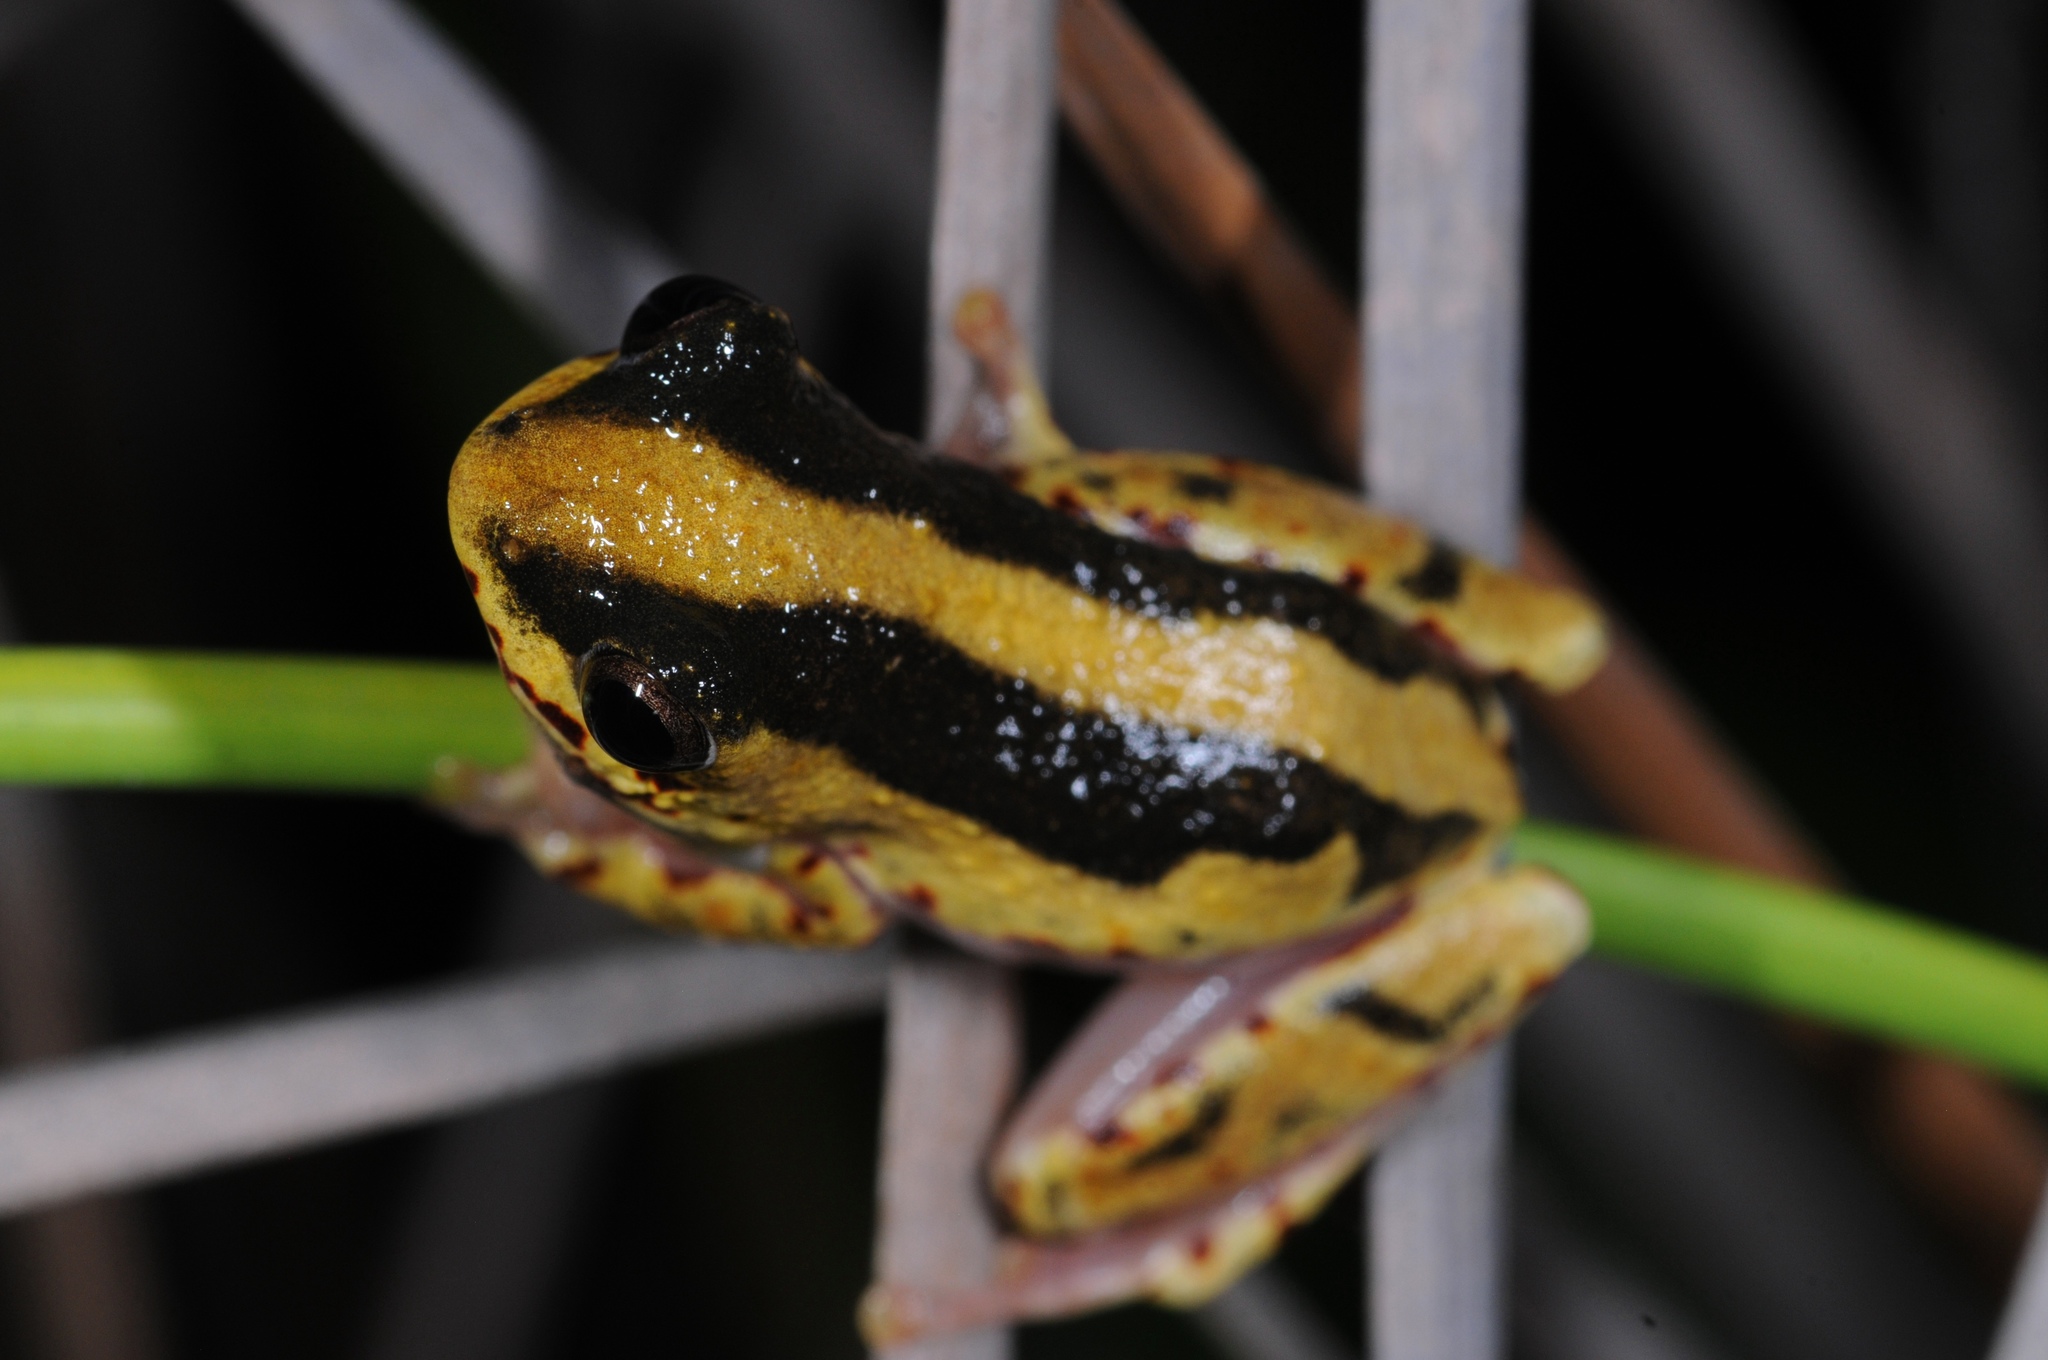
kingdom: Animalia
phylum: Chordata
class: Amphibia
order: Anura
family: Hyperoliidae
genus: Hyperolius
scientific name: Hyperolius marmoratus
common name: Painted reed frog
